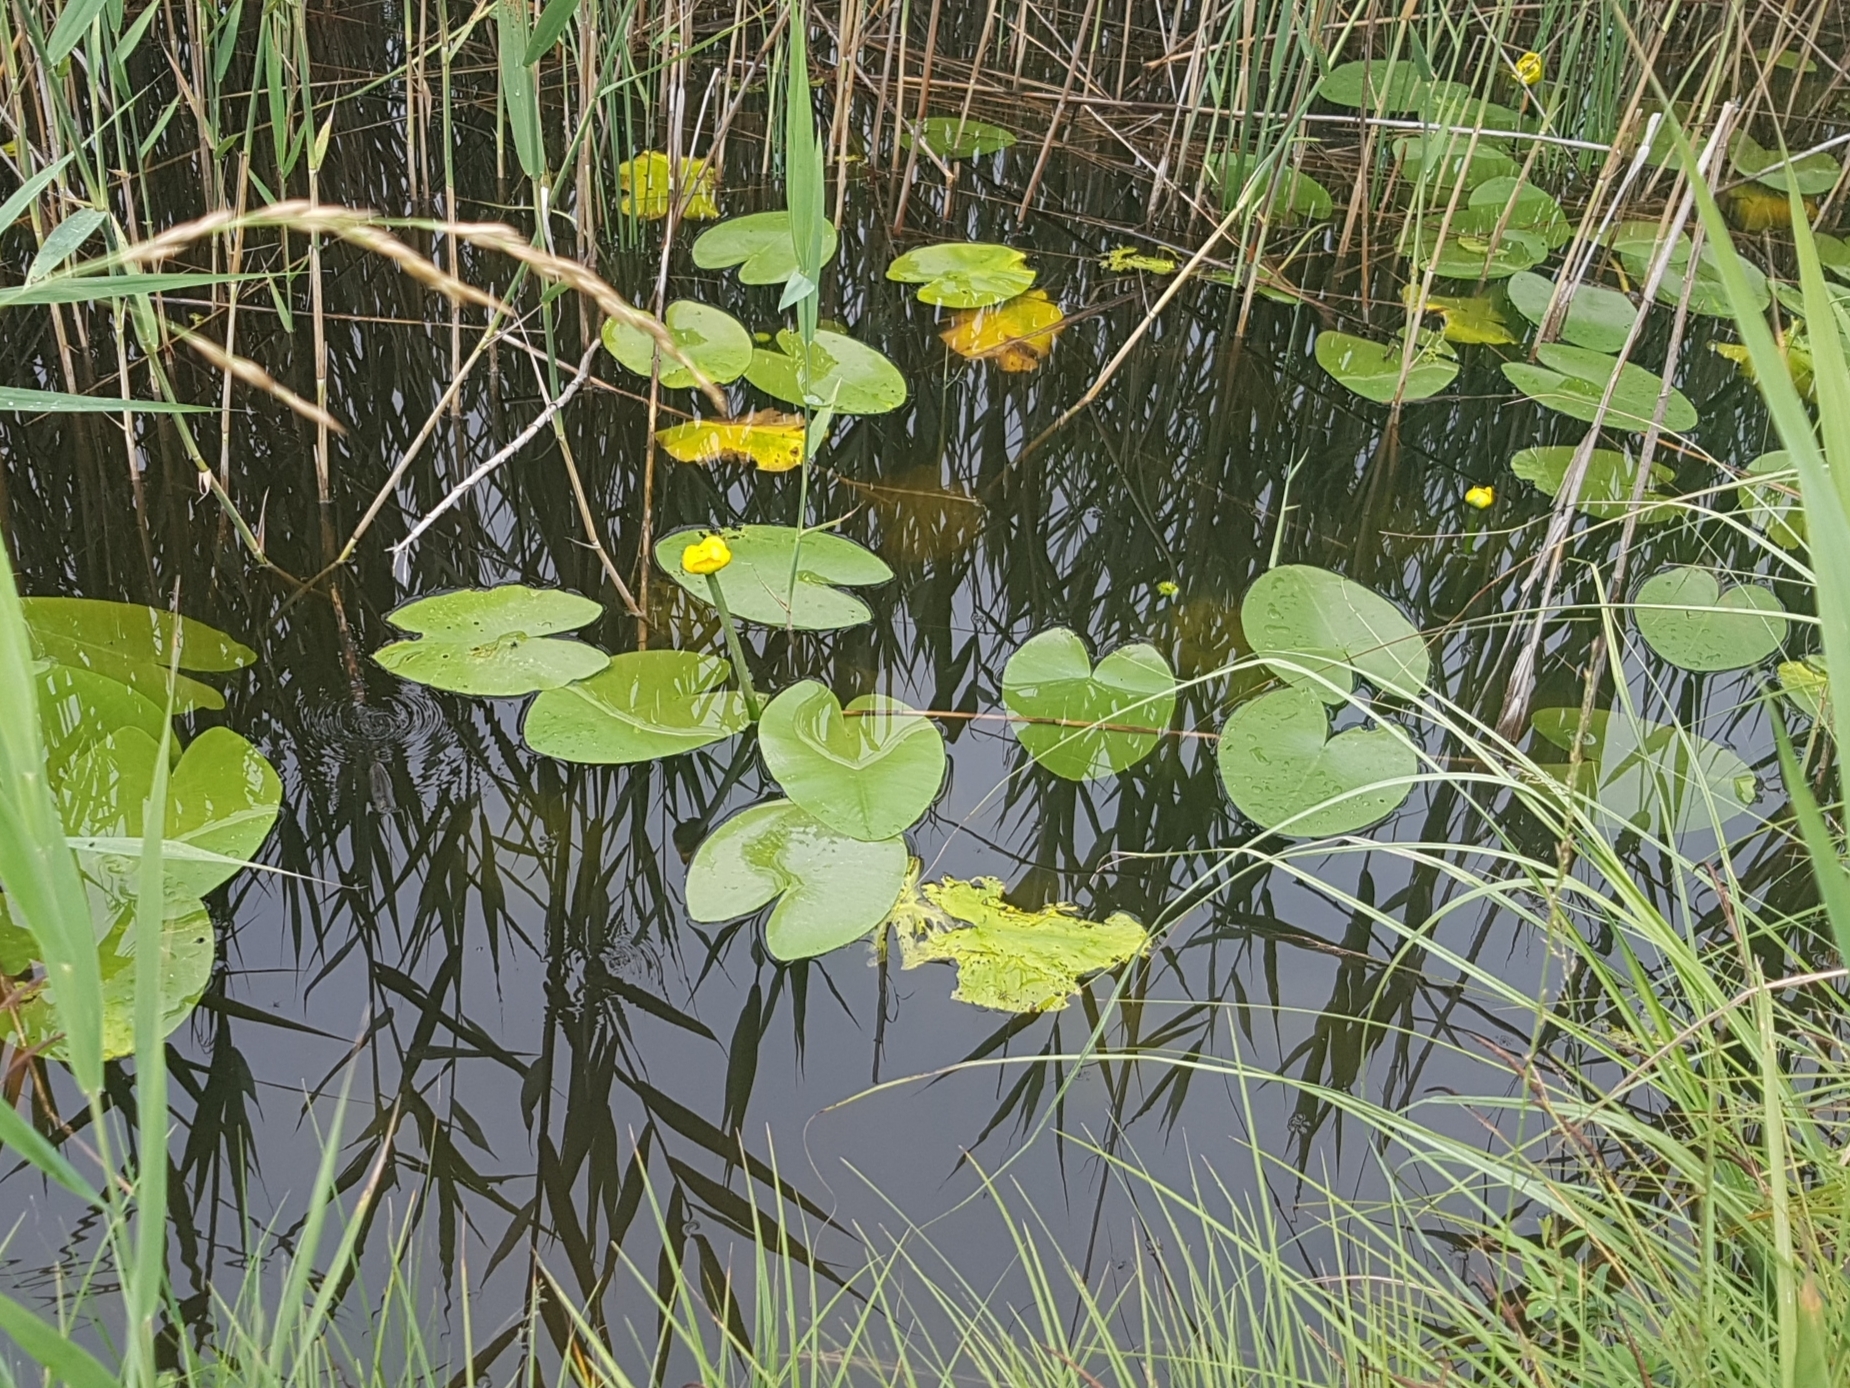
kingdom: Plantae
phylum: Tracheophyta
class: Magnoliopsida
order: Nymphaeales
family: Nymphaeaceae
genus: Nuphar
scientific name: Nuphar lutea
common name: Yellow water-lily
